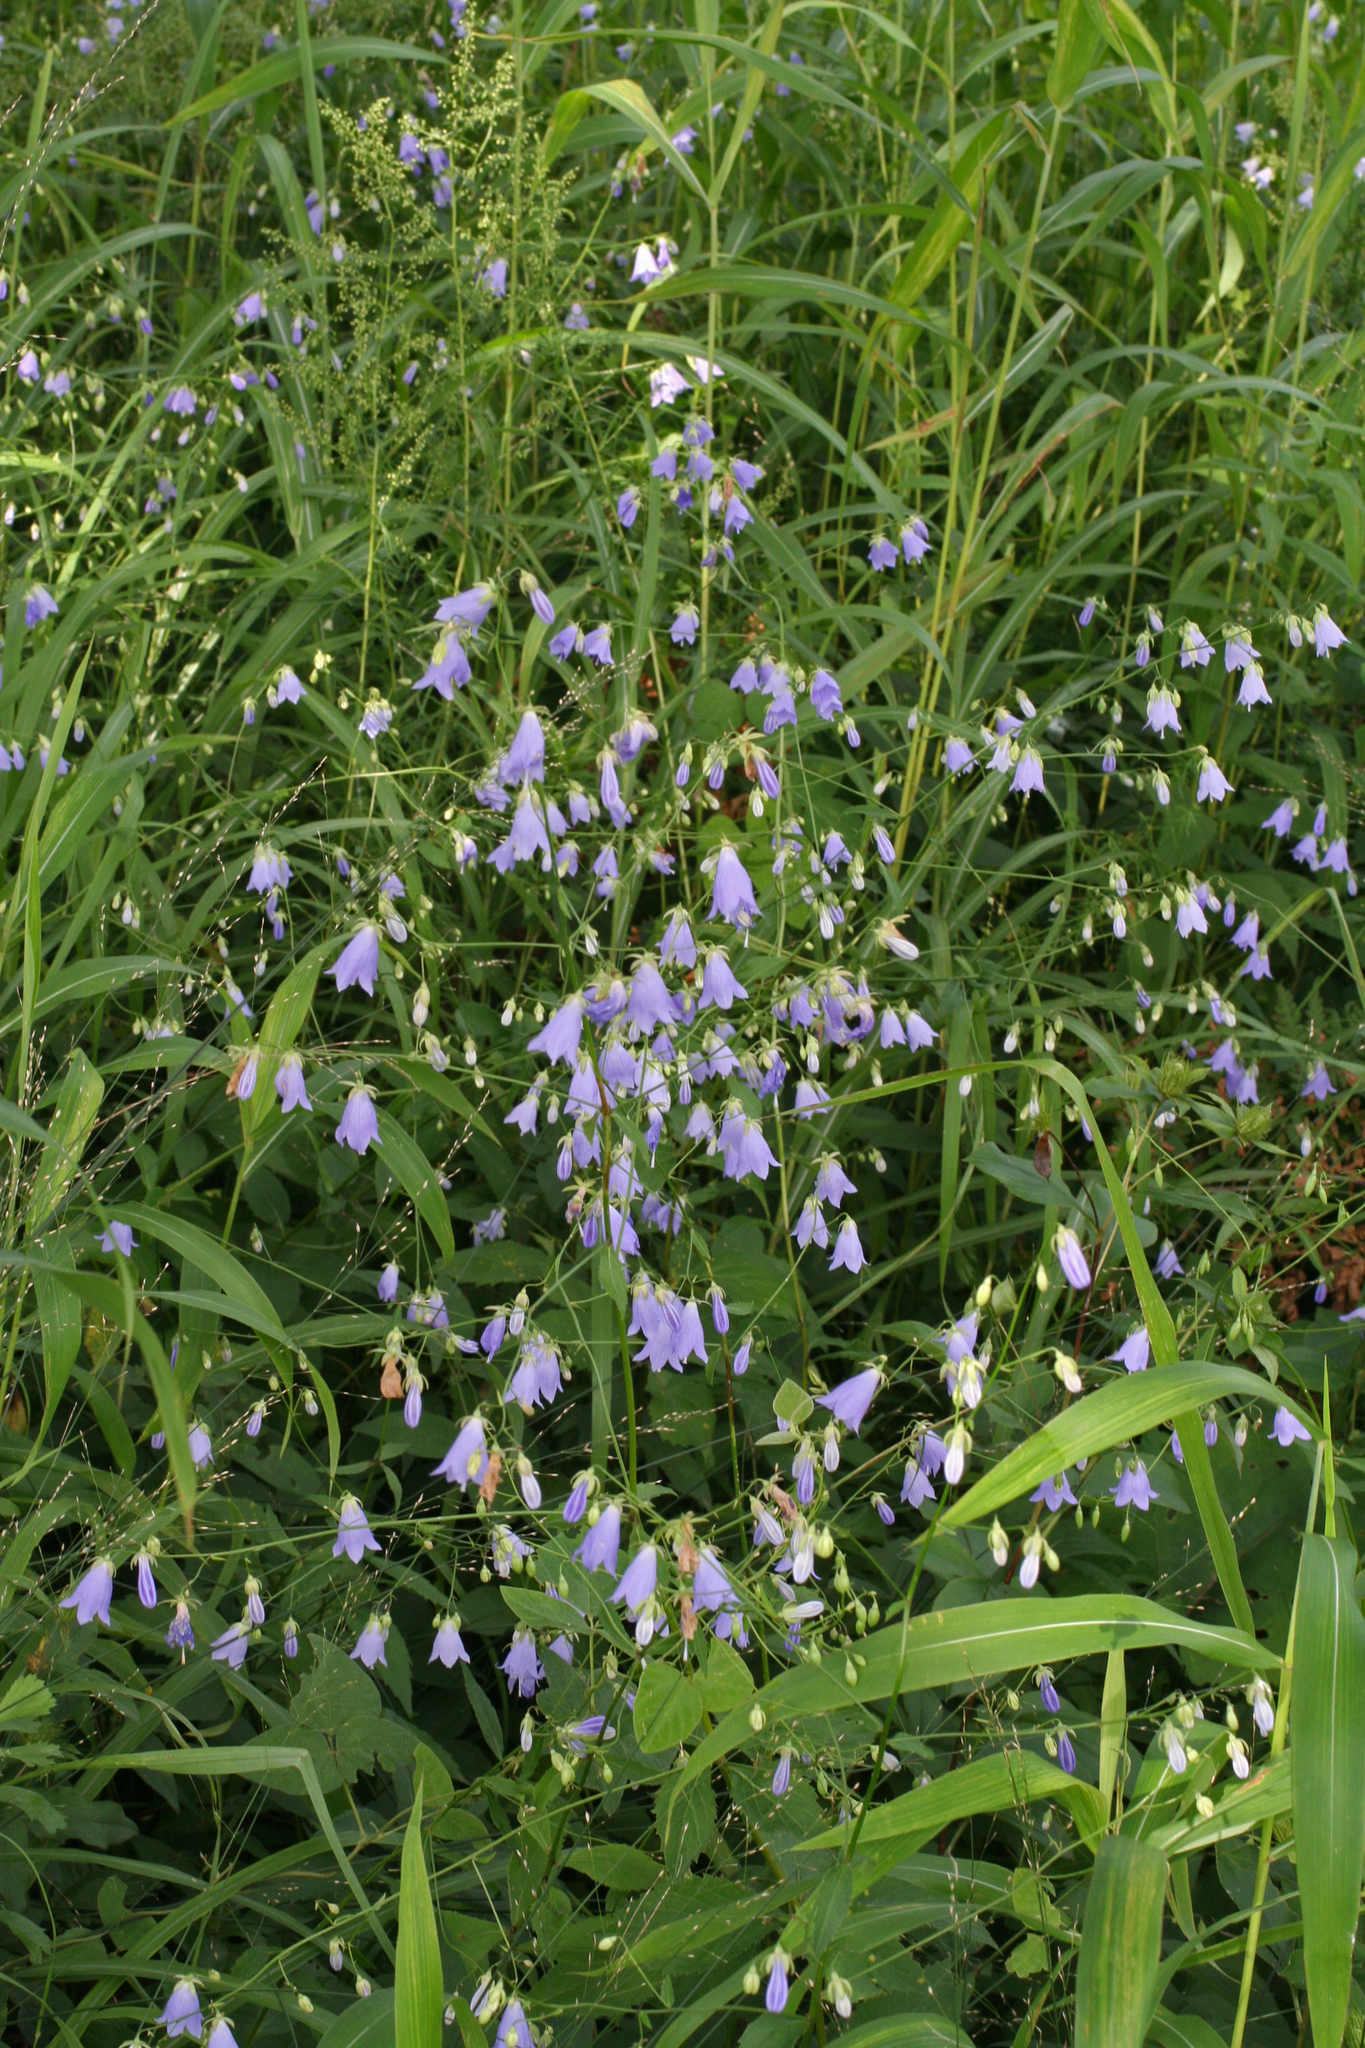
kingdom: Plantae
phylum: Tracheophyta
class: Magnoliopsida
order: Asterales
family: Campanulaceae
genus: Adenophora
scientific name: Adenophora divaricata
